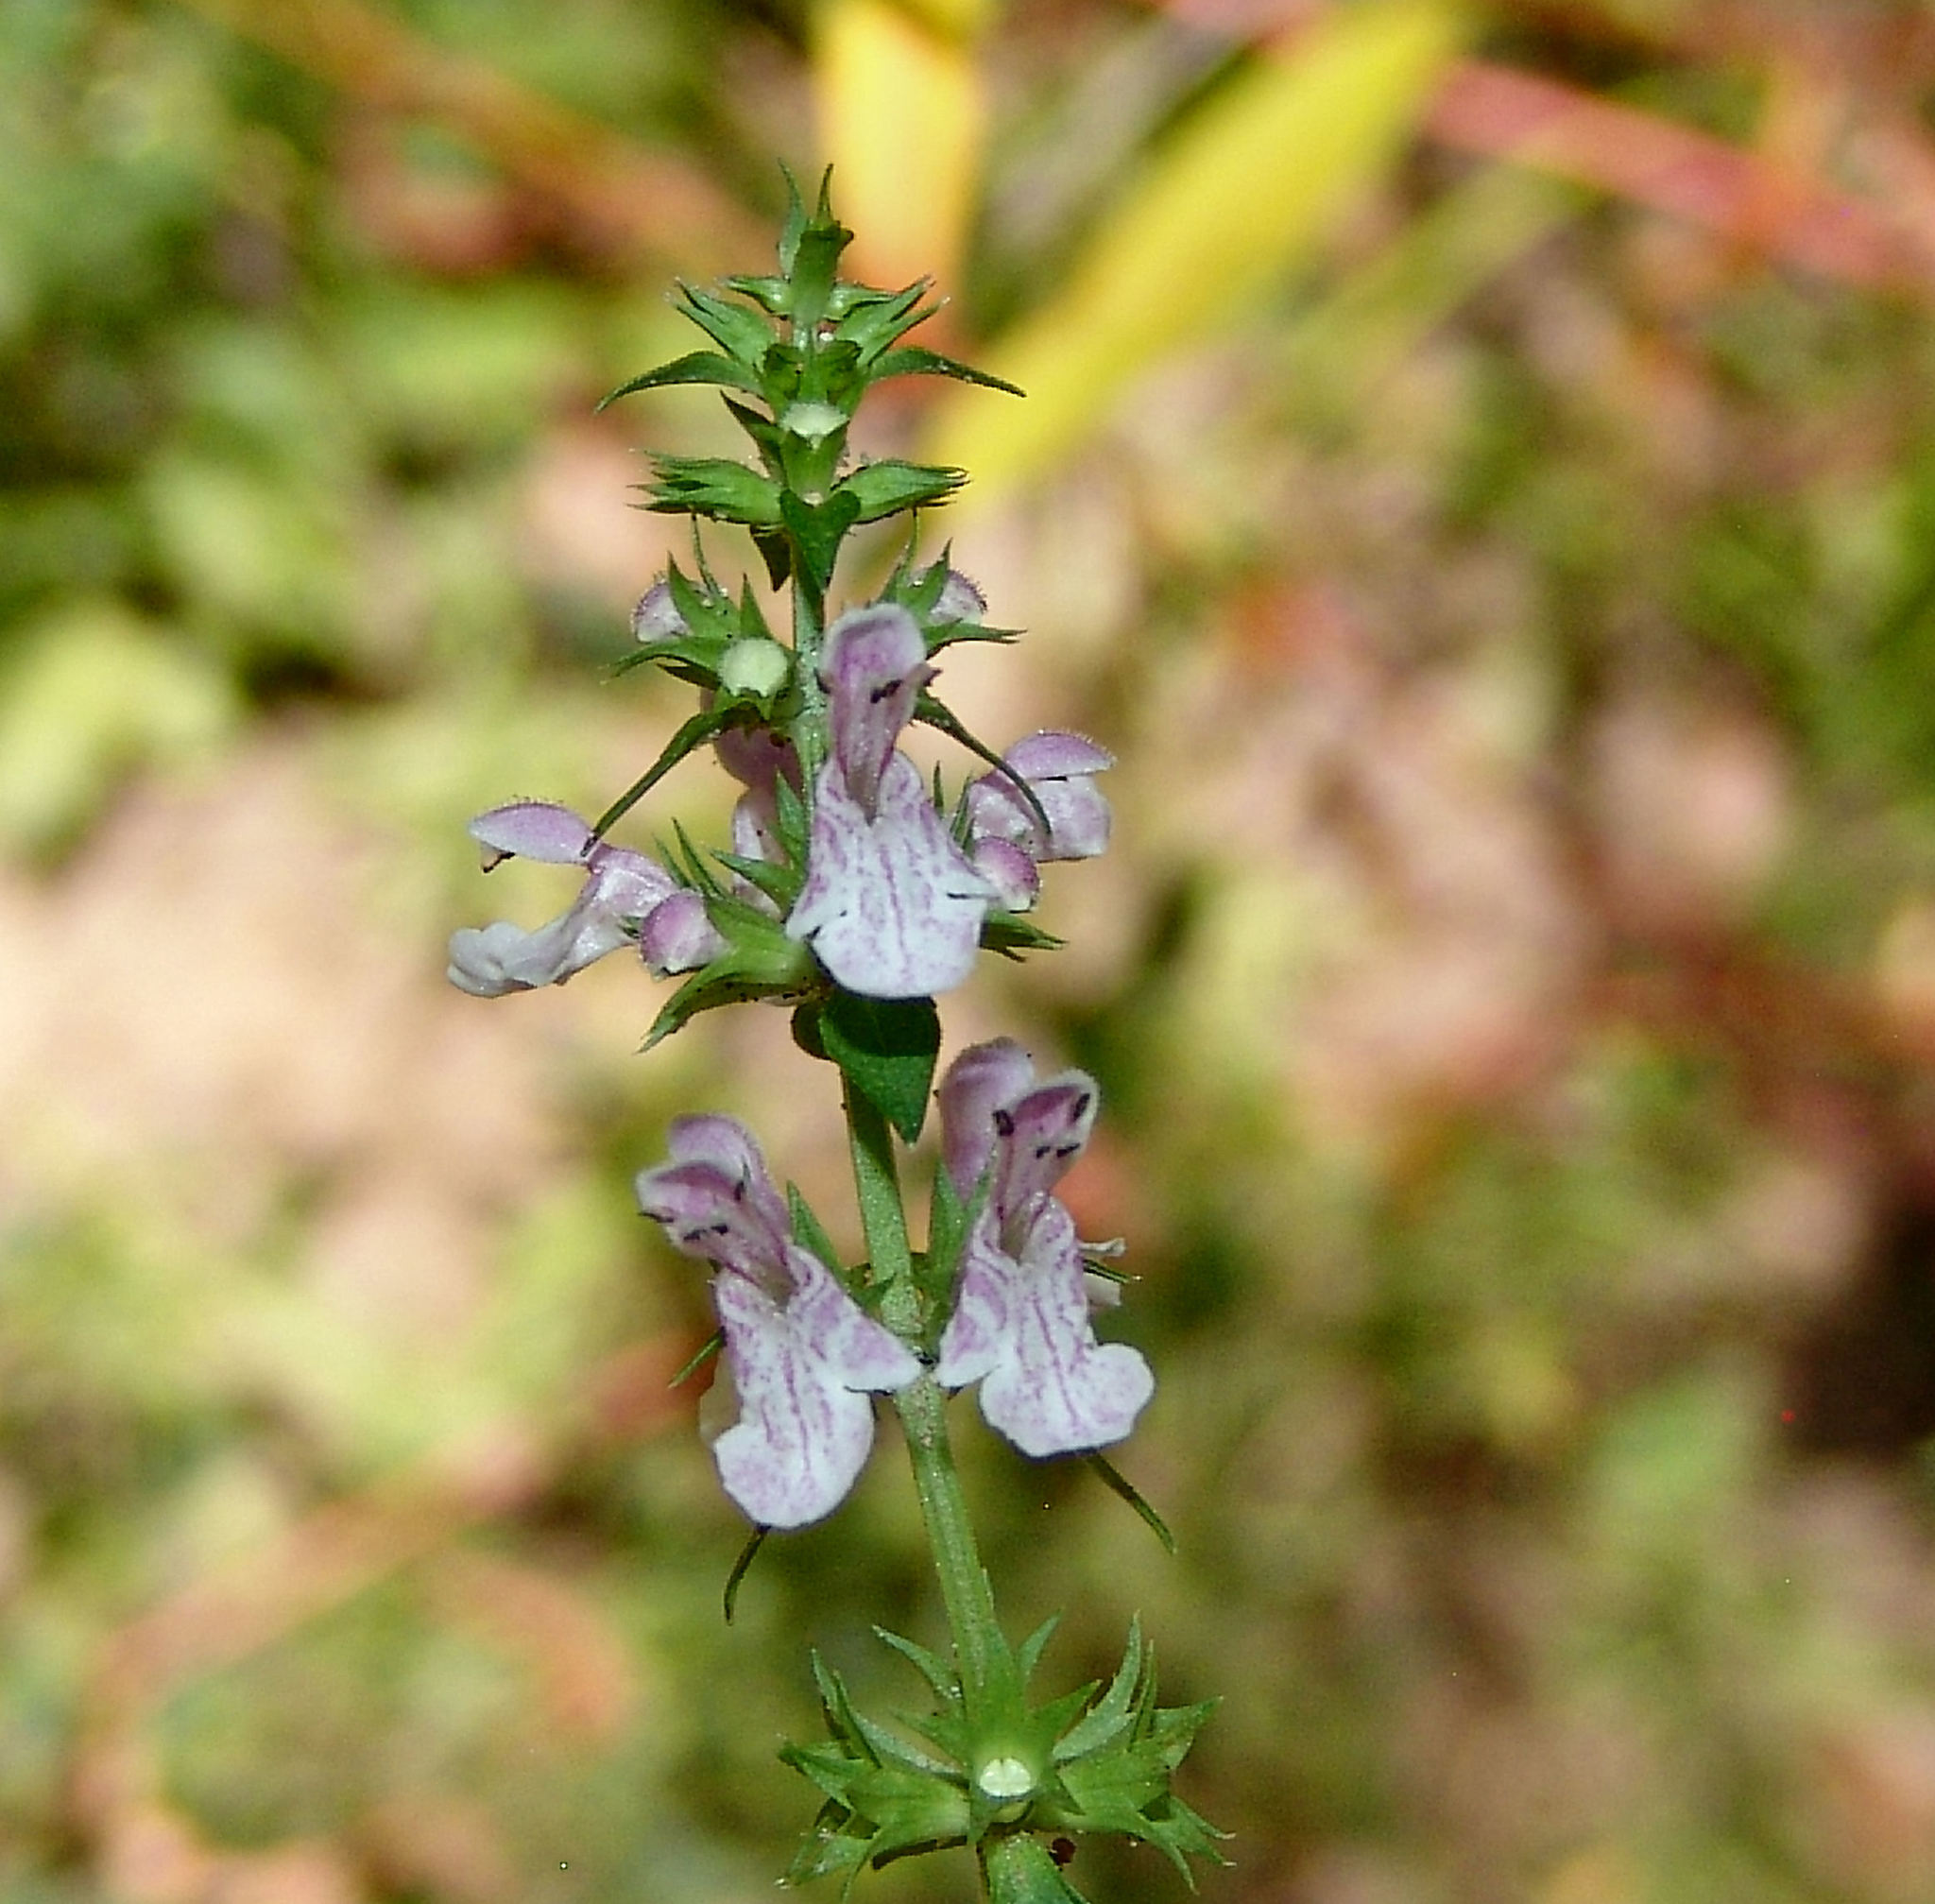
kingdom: Plantae
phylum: Tracheophyta
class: Magnoliopsida
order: Lamiales
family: Lamiaceae
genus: Stachys
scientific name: Stachys tenuifolia
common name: Smooth hedge-nettle
